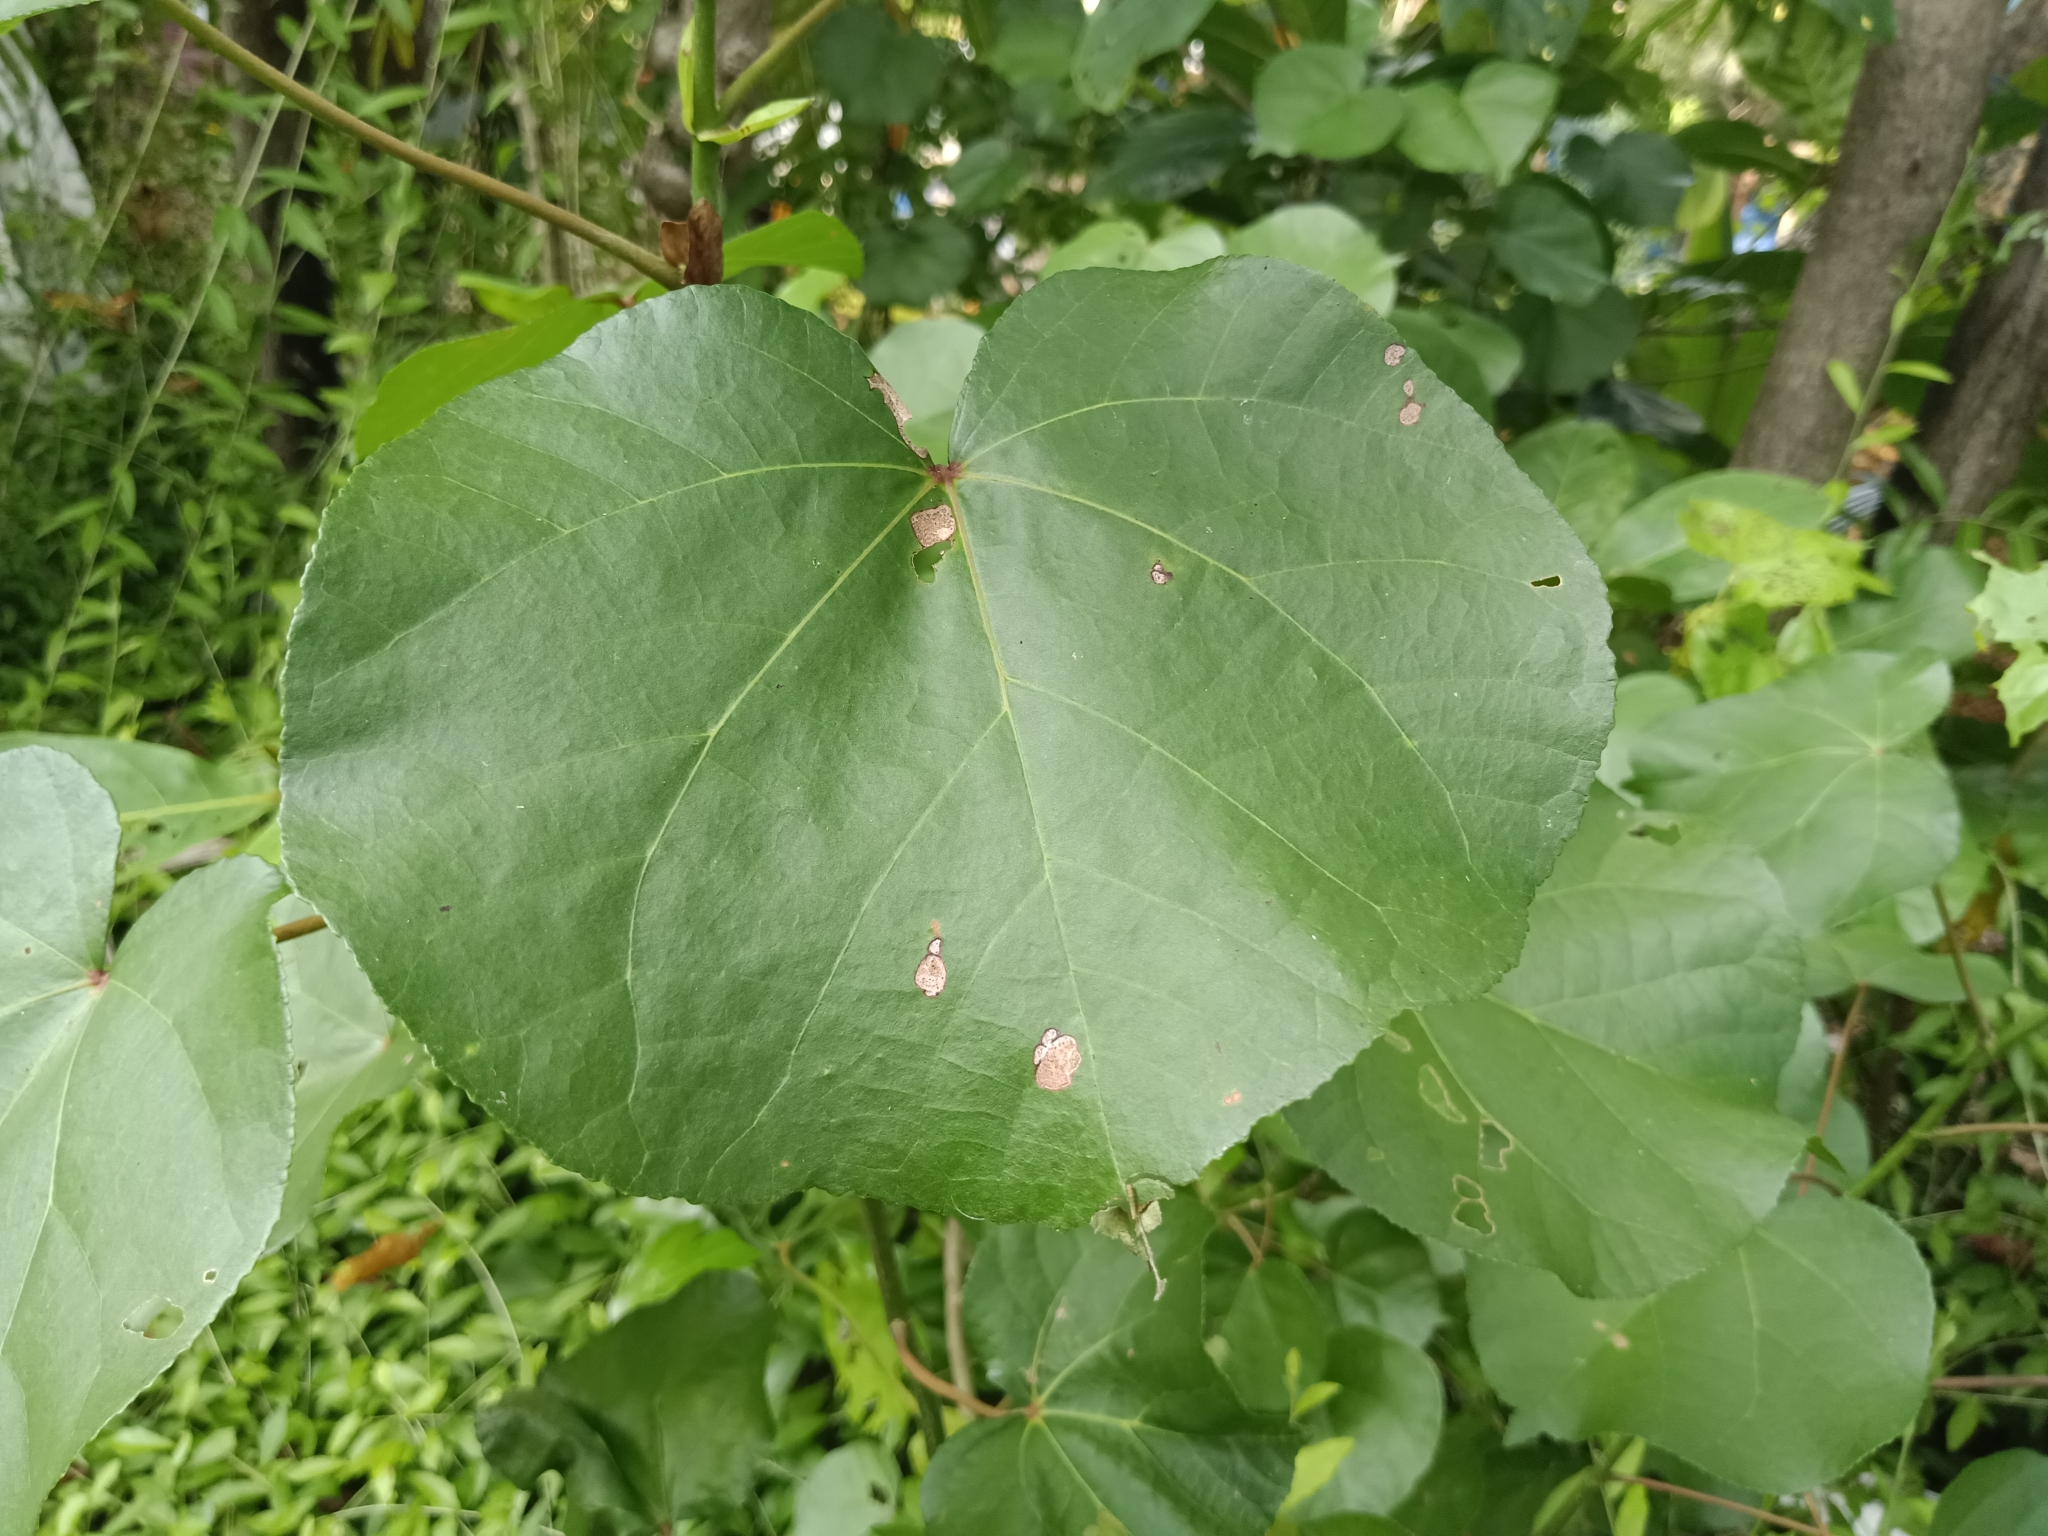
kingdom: Plantae
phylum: Tracheophyta
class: Magnoliopsida
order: Malvales
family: Malvaceae
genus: Talipariti
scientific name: Talipariti tiliaceum
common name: Sea hibiscus
